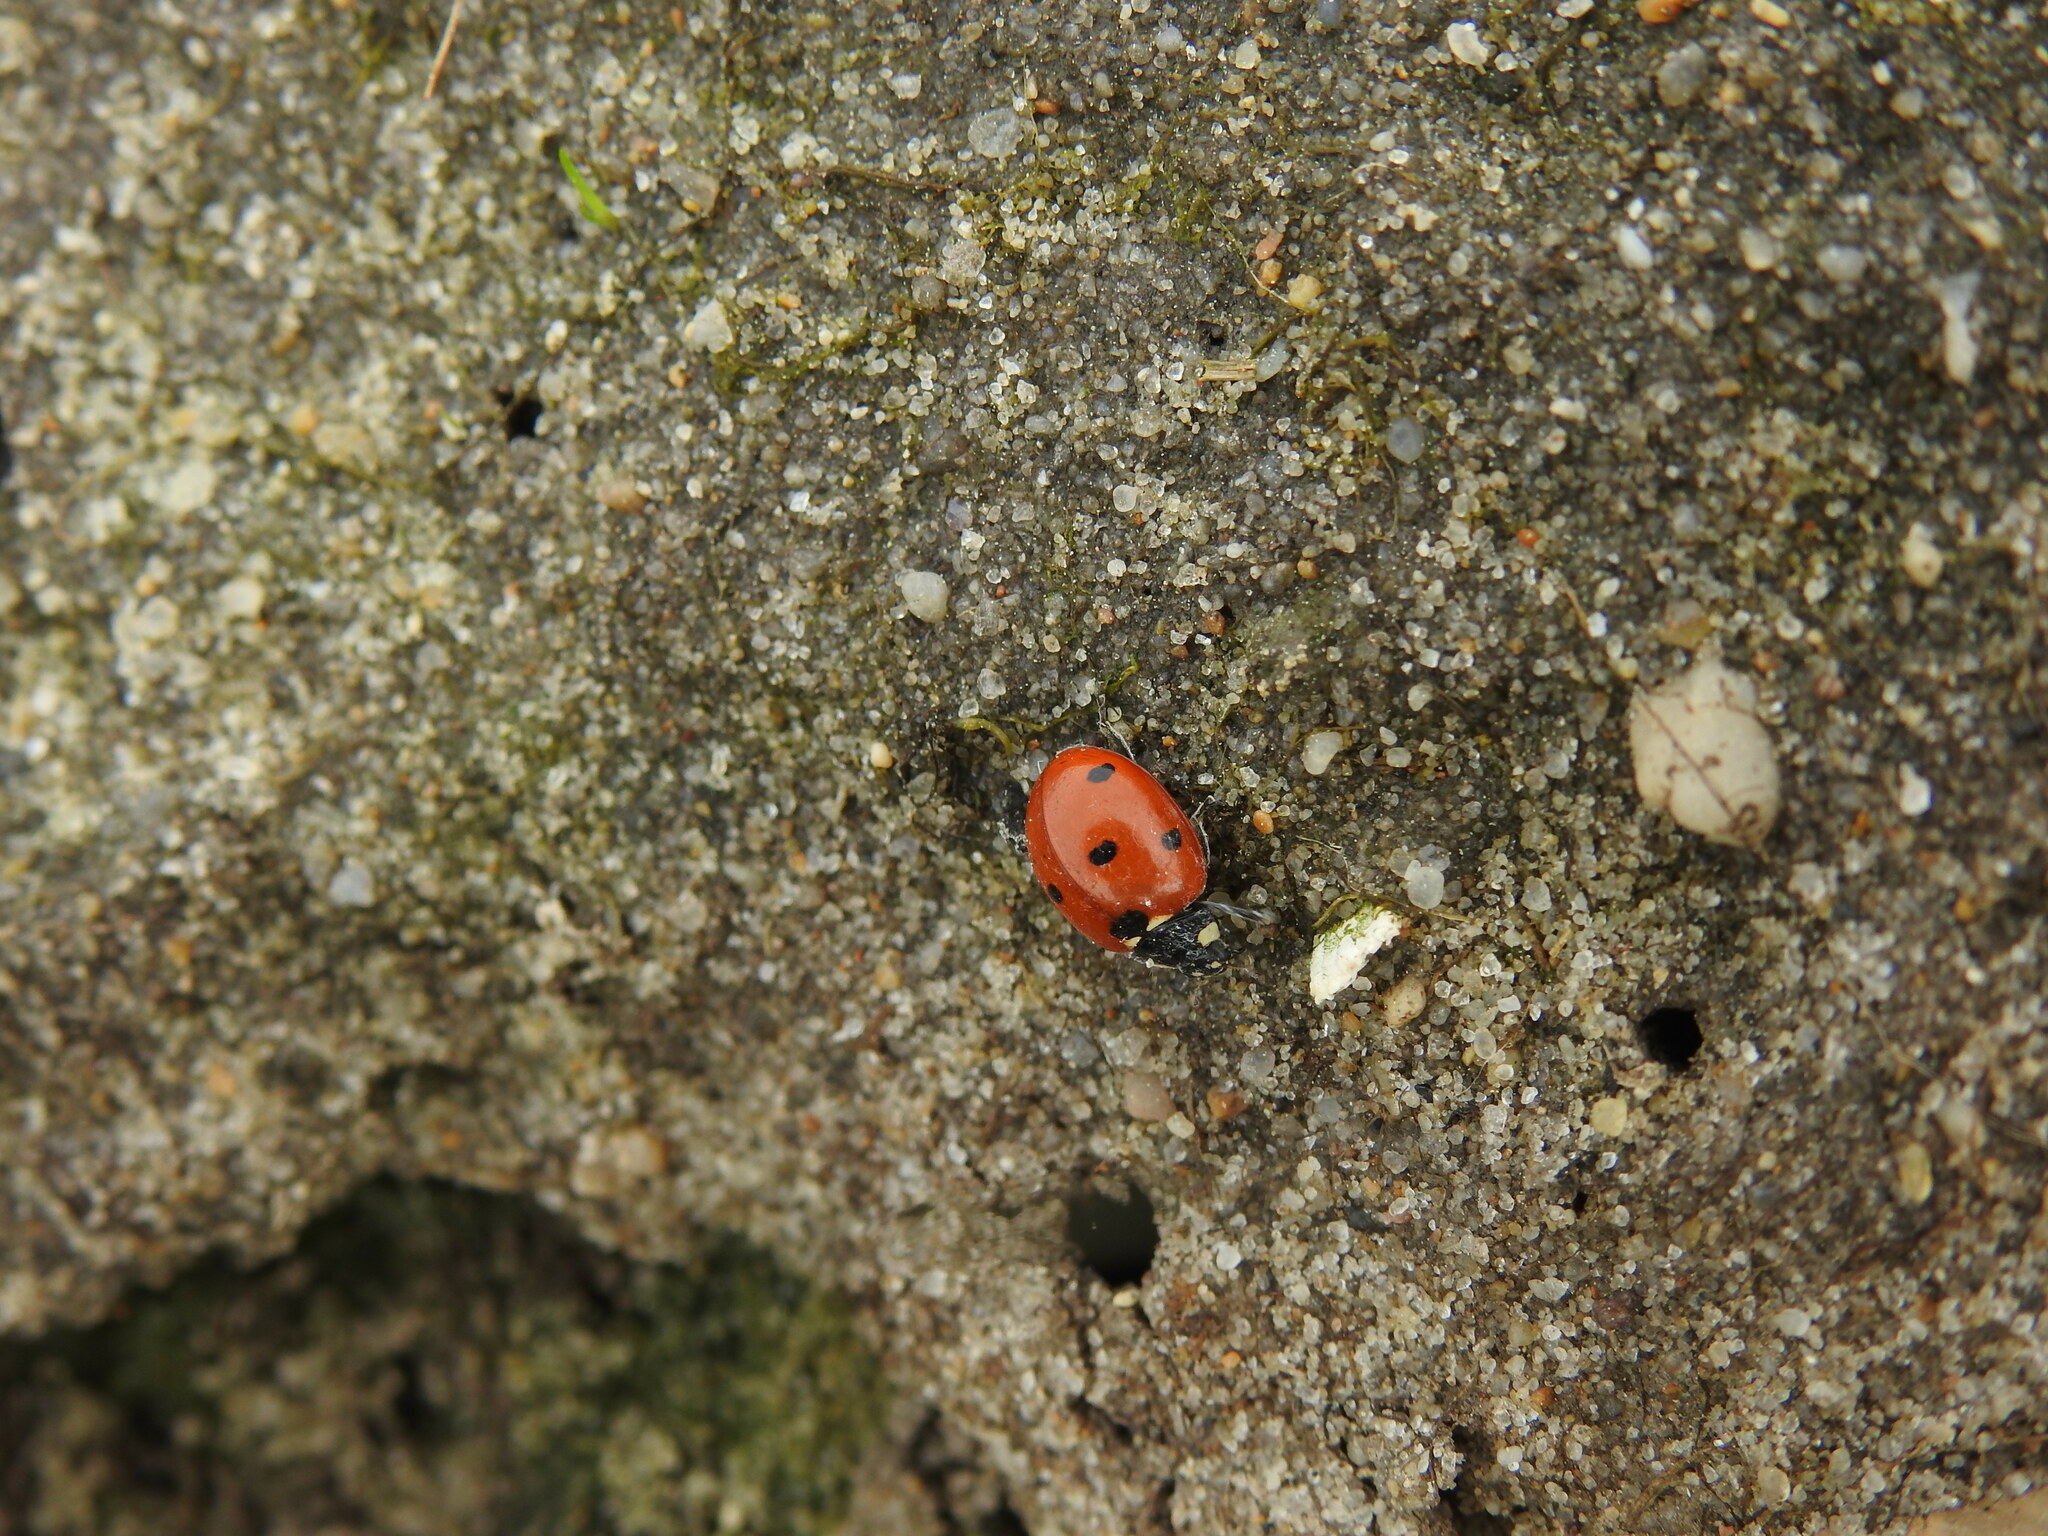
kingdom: Animalia
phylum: Arthropoda
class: Insecta
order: Coleoptera
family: Coccinellidae
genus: Coccinella
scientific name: Coccinella septempunctata
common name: Sevenspotted lady beetle
